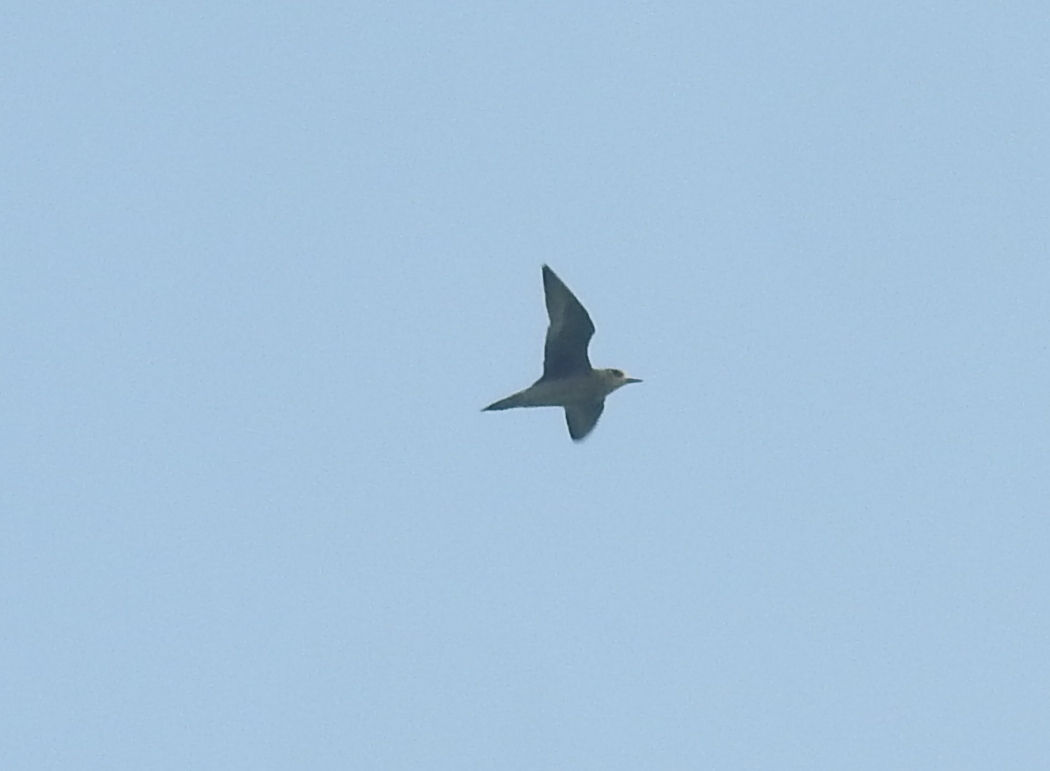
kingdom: Animalia
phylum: Chordata
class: Aves
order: Charadriiformes
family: Charadriidae
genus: Pluvialis
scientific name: Pluvialis fulva
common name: Pacific golden plover
